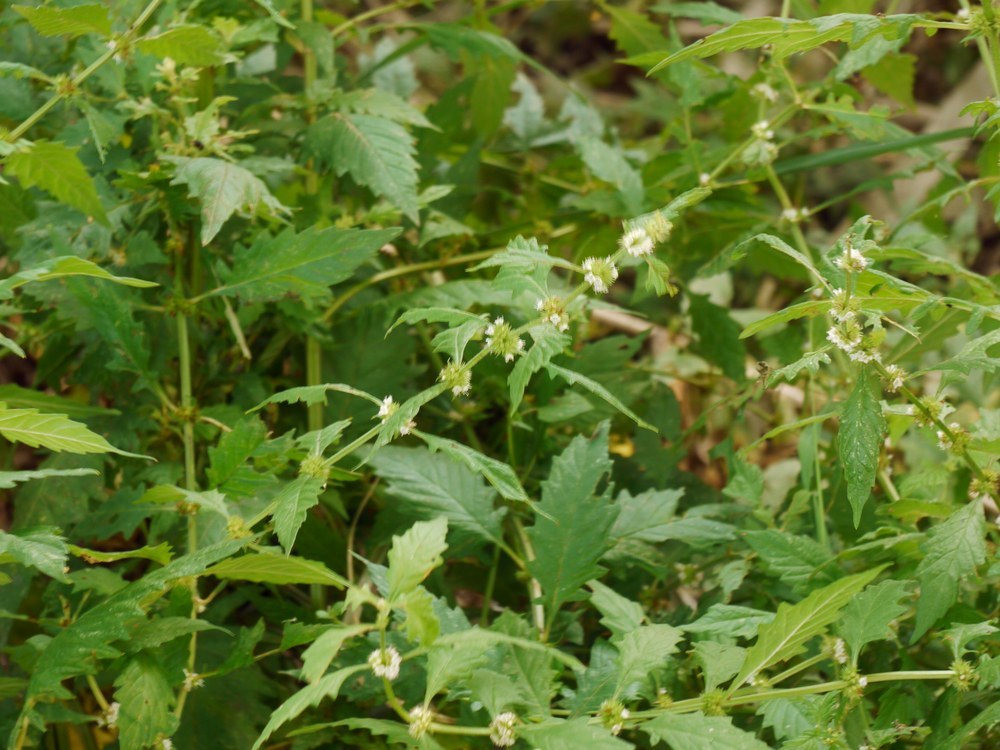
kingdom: Plantae
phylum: Tracheophyta
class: Magnoliopsida
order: Lamiales
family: Lamiaceae
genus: Lycopus
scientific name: Lycopus europaeus
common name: European bugleweed
